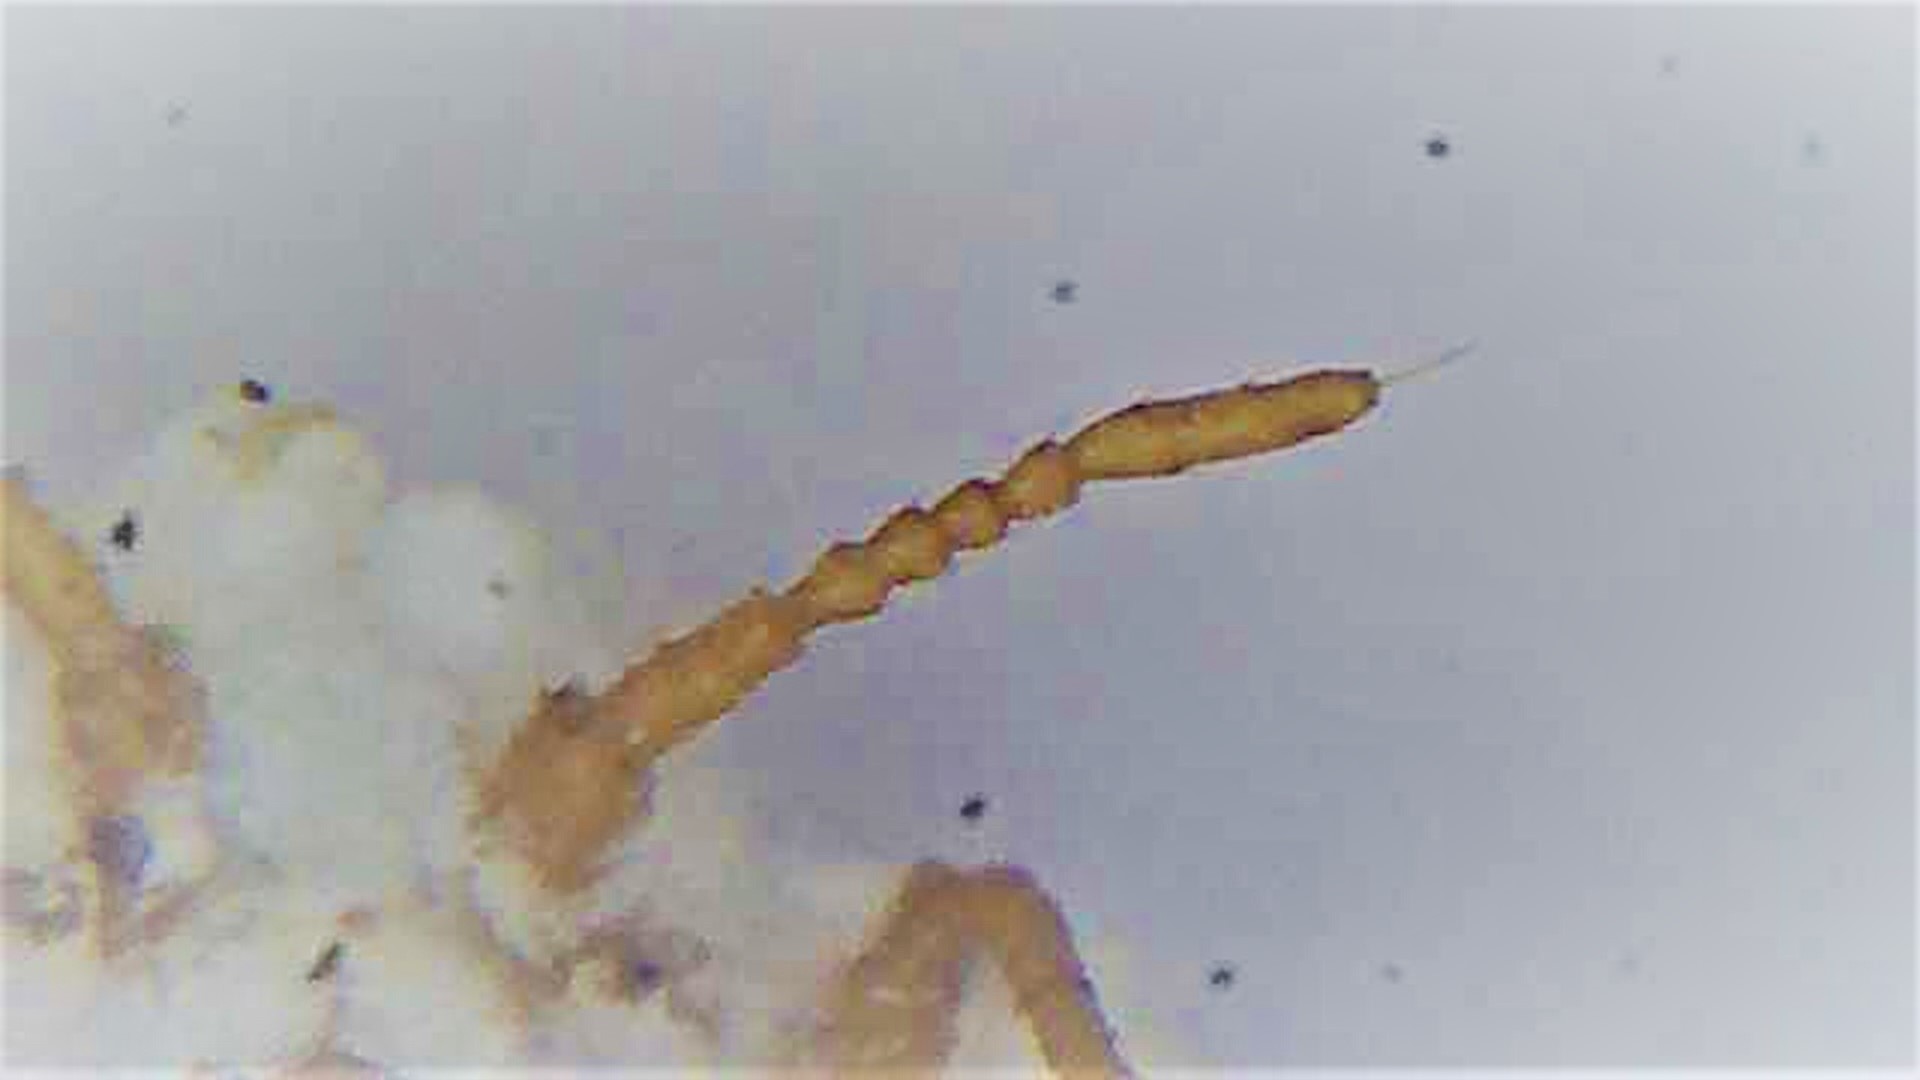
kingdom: Animalia
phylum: Arthropoda
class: Insecta
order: Hemiptera
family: Ortheziidae
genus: Newsteadia
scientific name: Newsteadia gullanae
